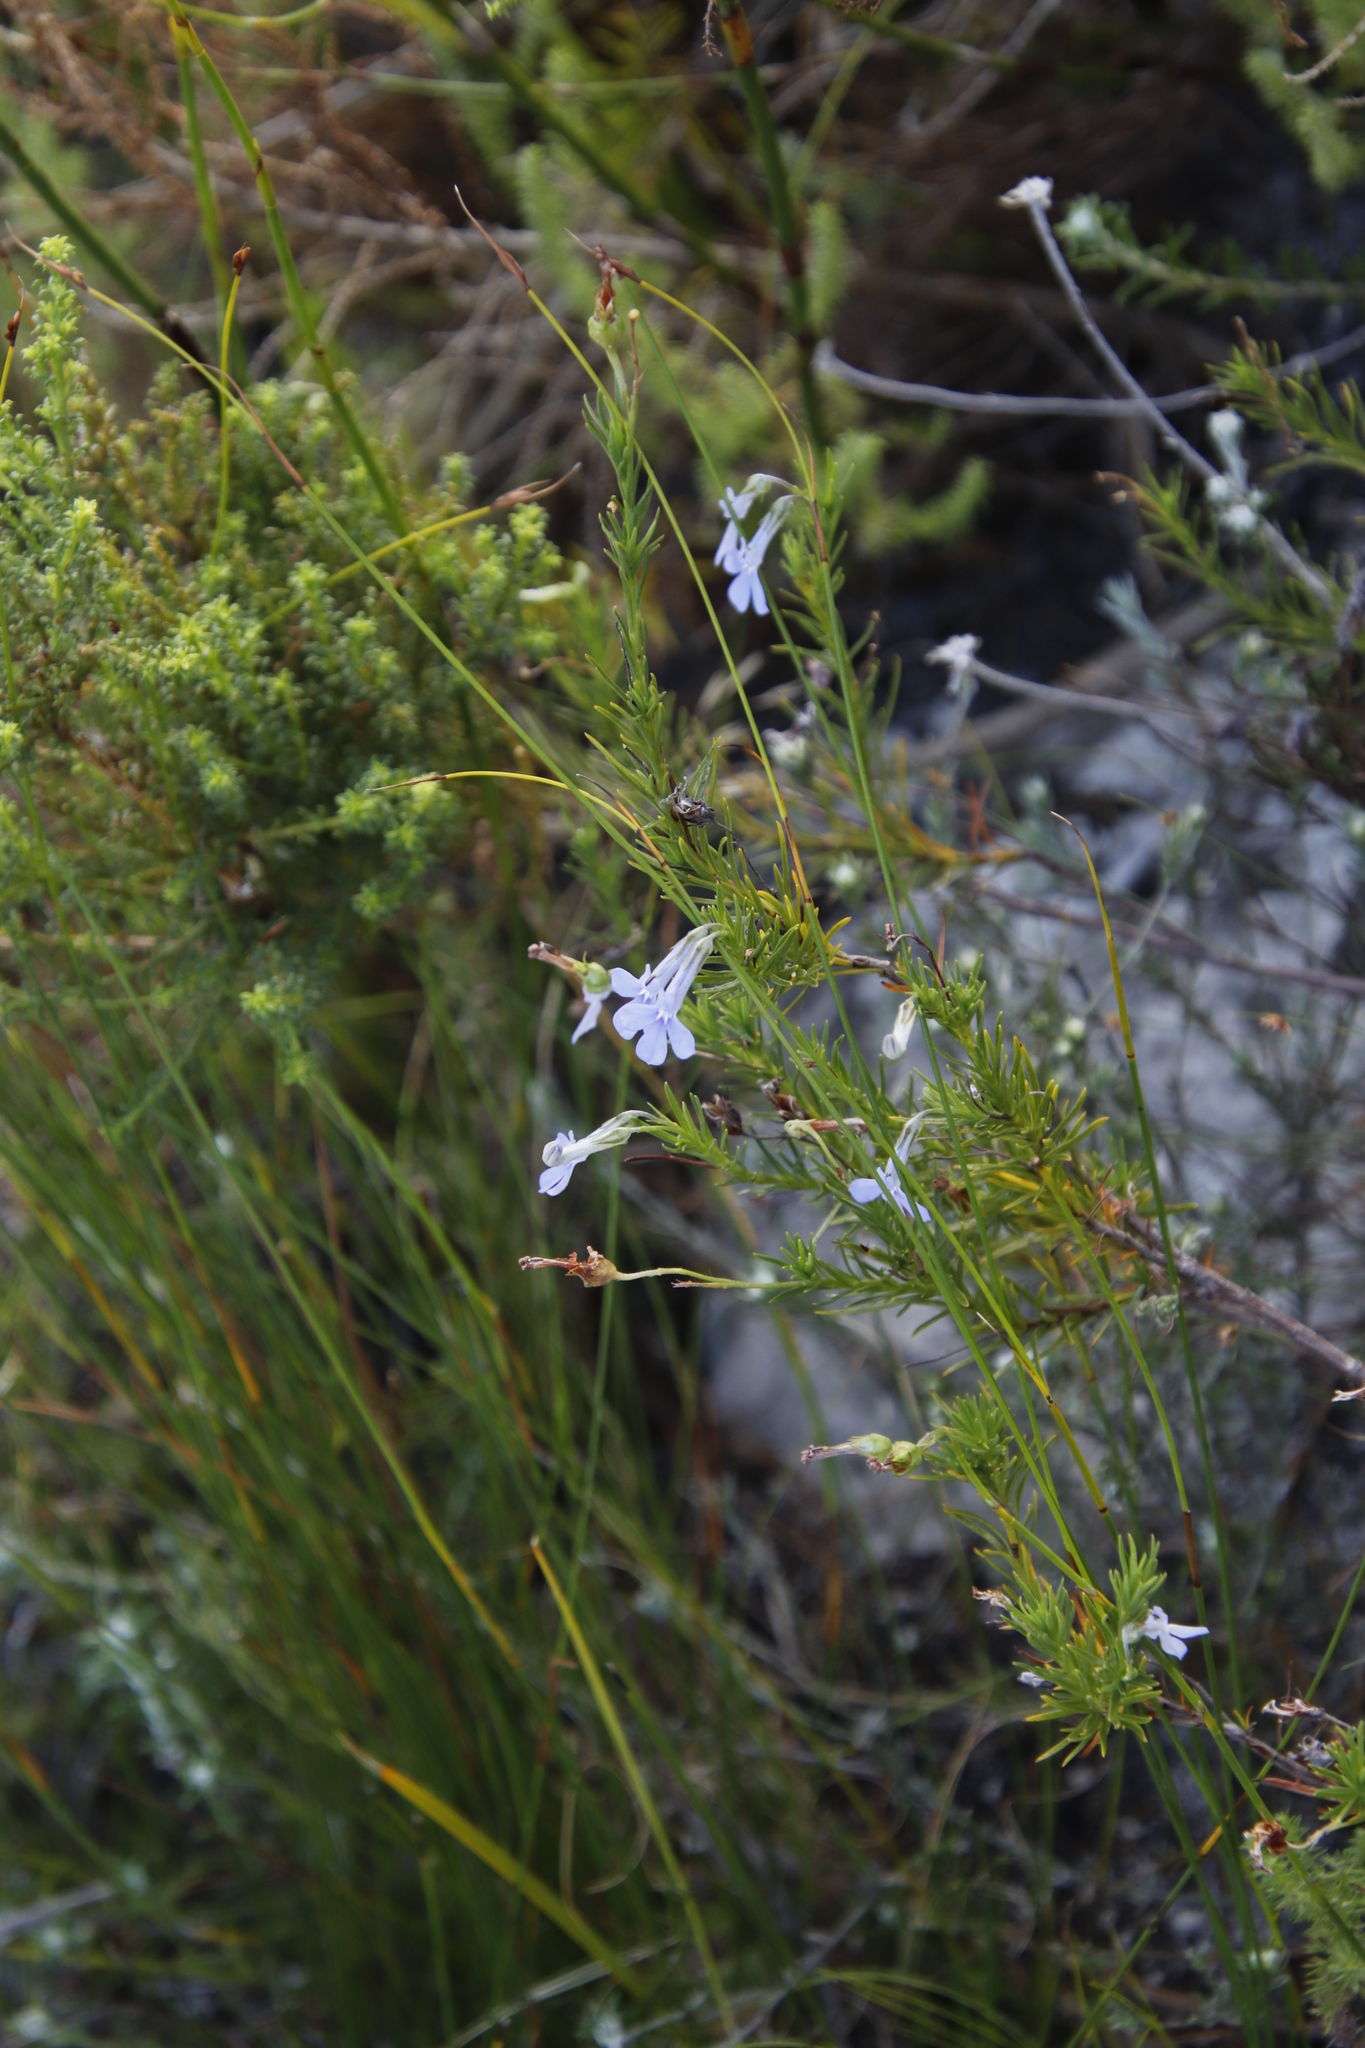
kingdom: Plantae
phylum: Tracheophyta
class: Magnoliopsida
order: Asterales
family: Campanulaceae
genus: Lobelia
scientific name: Lobelia pinifolia
